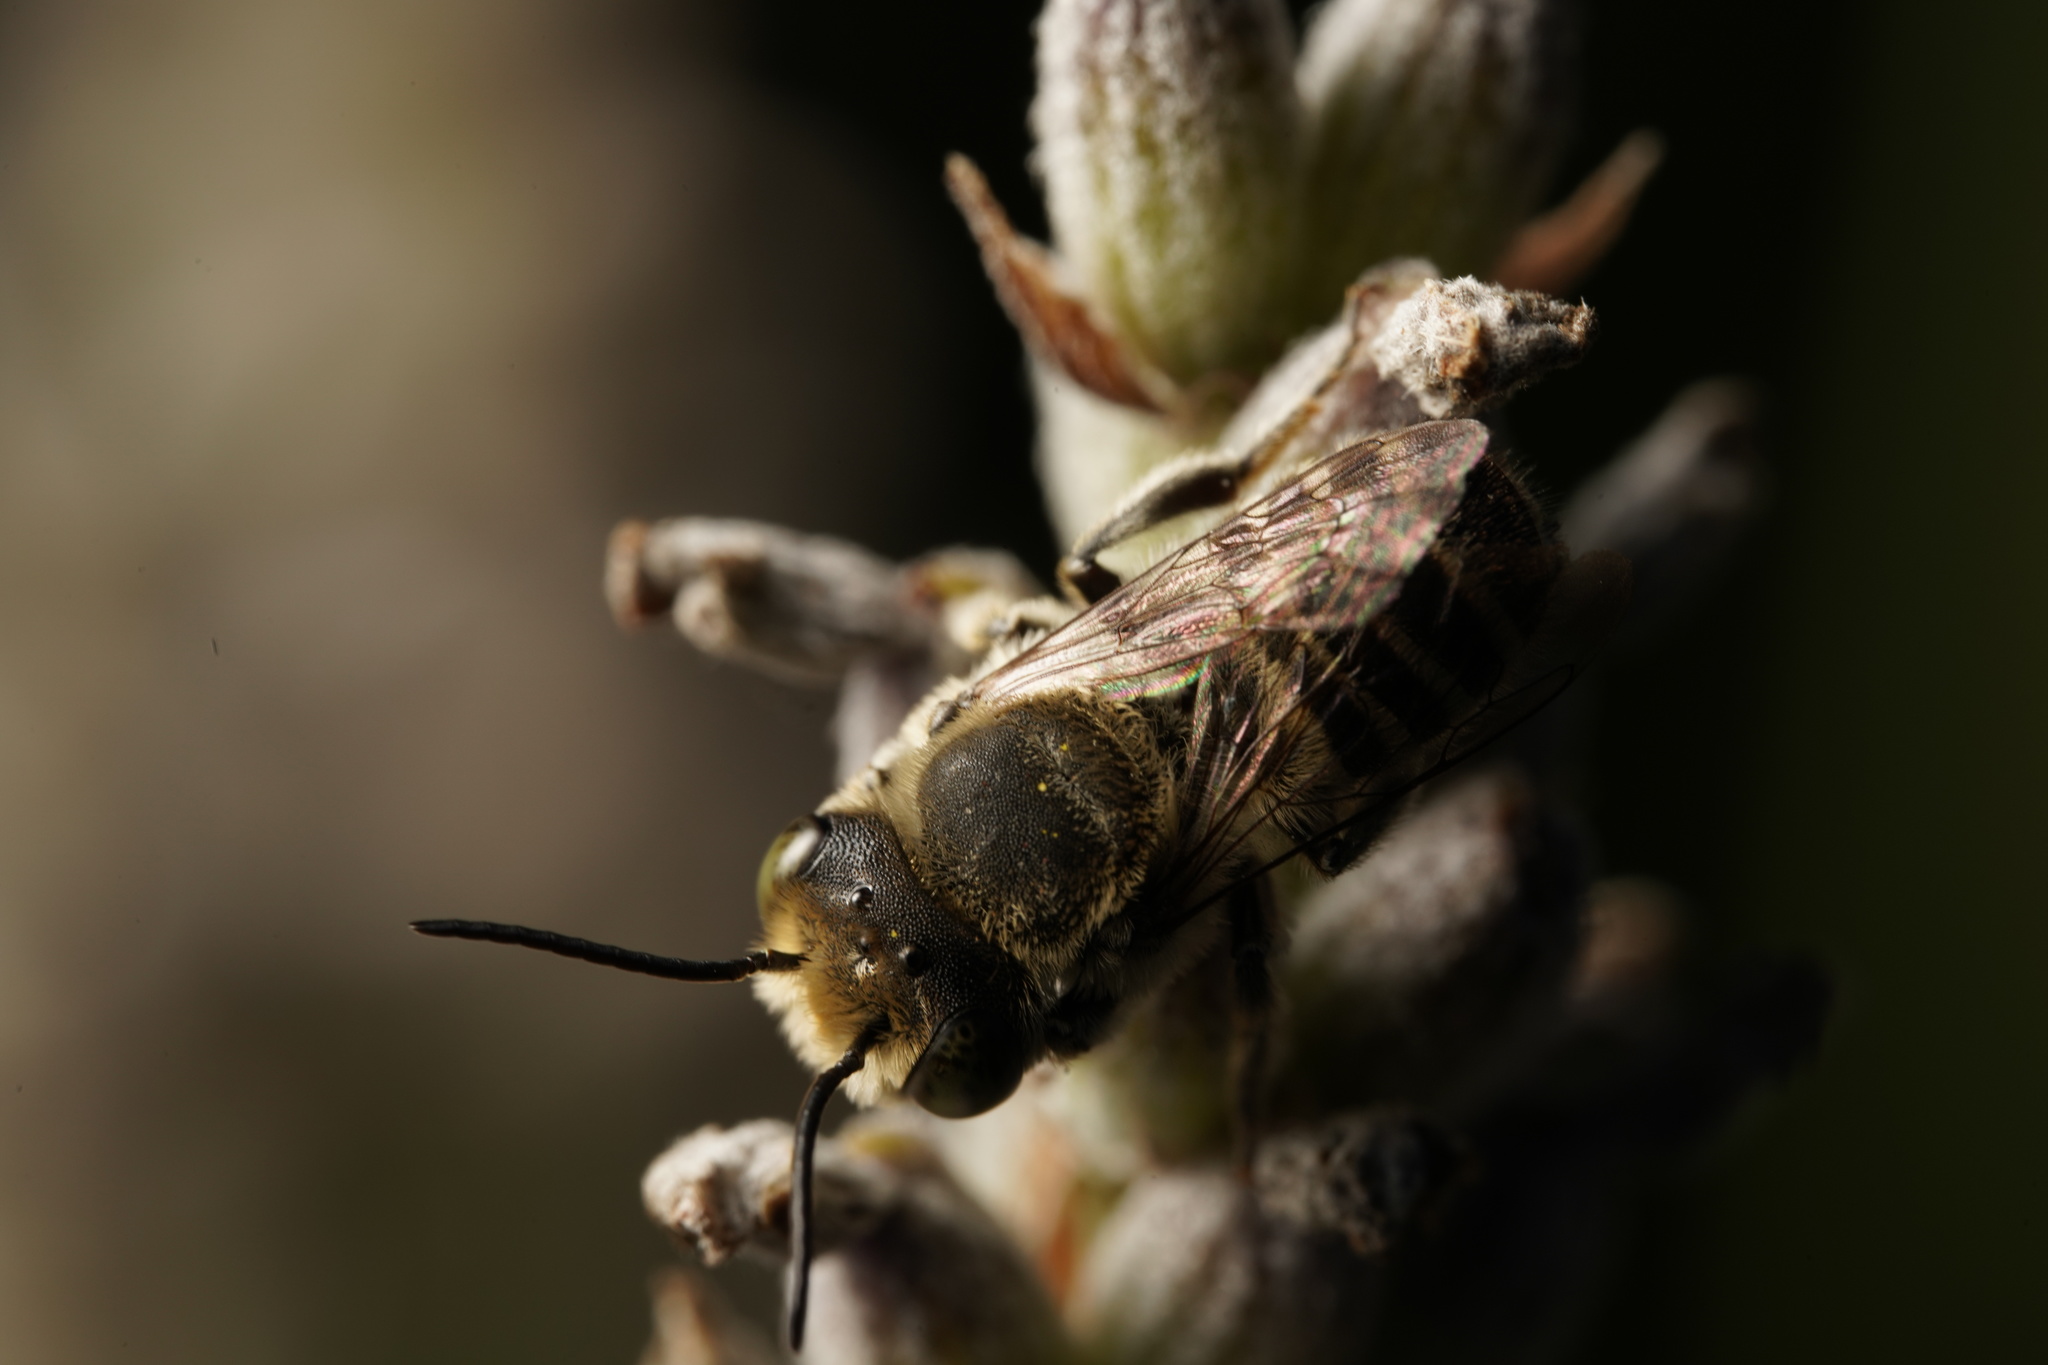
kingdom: Animalia
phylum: Arthropoda
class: Insecta
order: Hymenoptera
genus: Eutricharaea
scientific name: Eutricharaea
